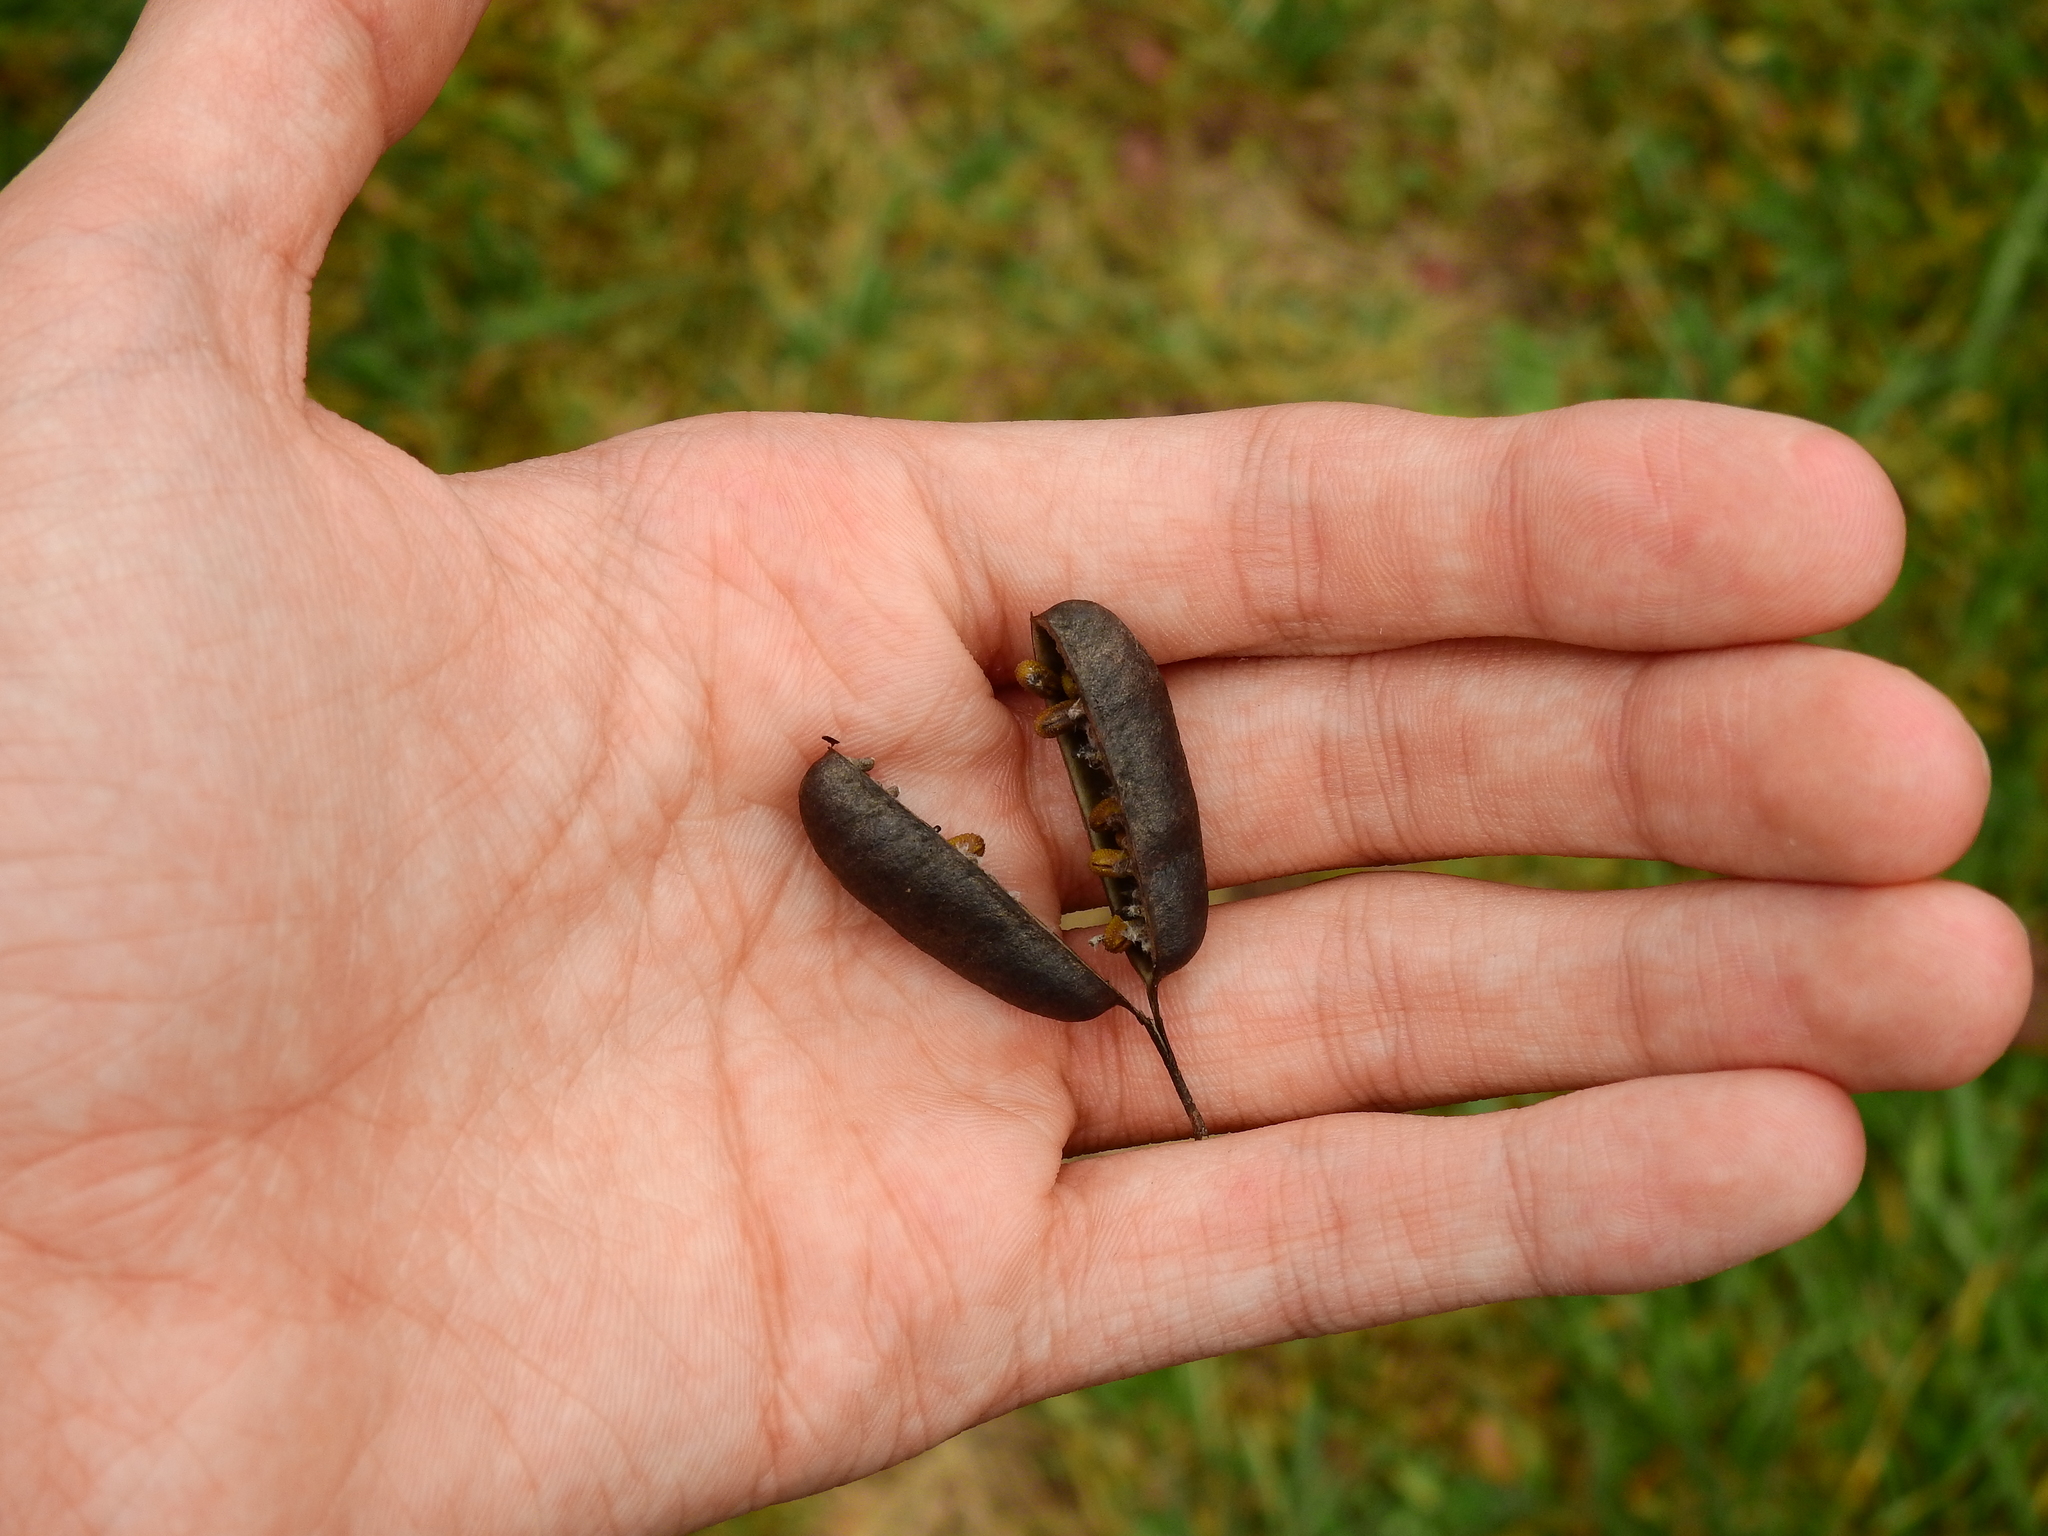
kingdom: Plantae
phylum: Tracheophyta
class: Magnoliopsida
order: Fabales
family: Fabaceae
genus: Baptisia
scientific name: Baptisia alba
